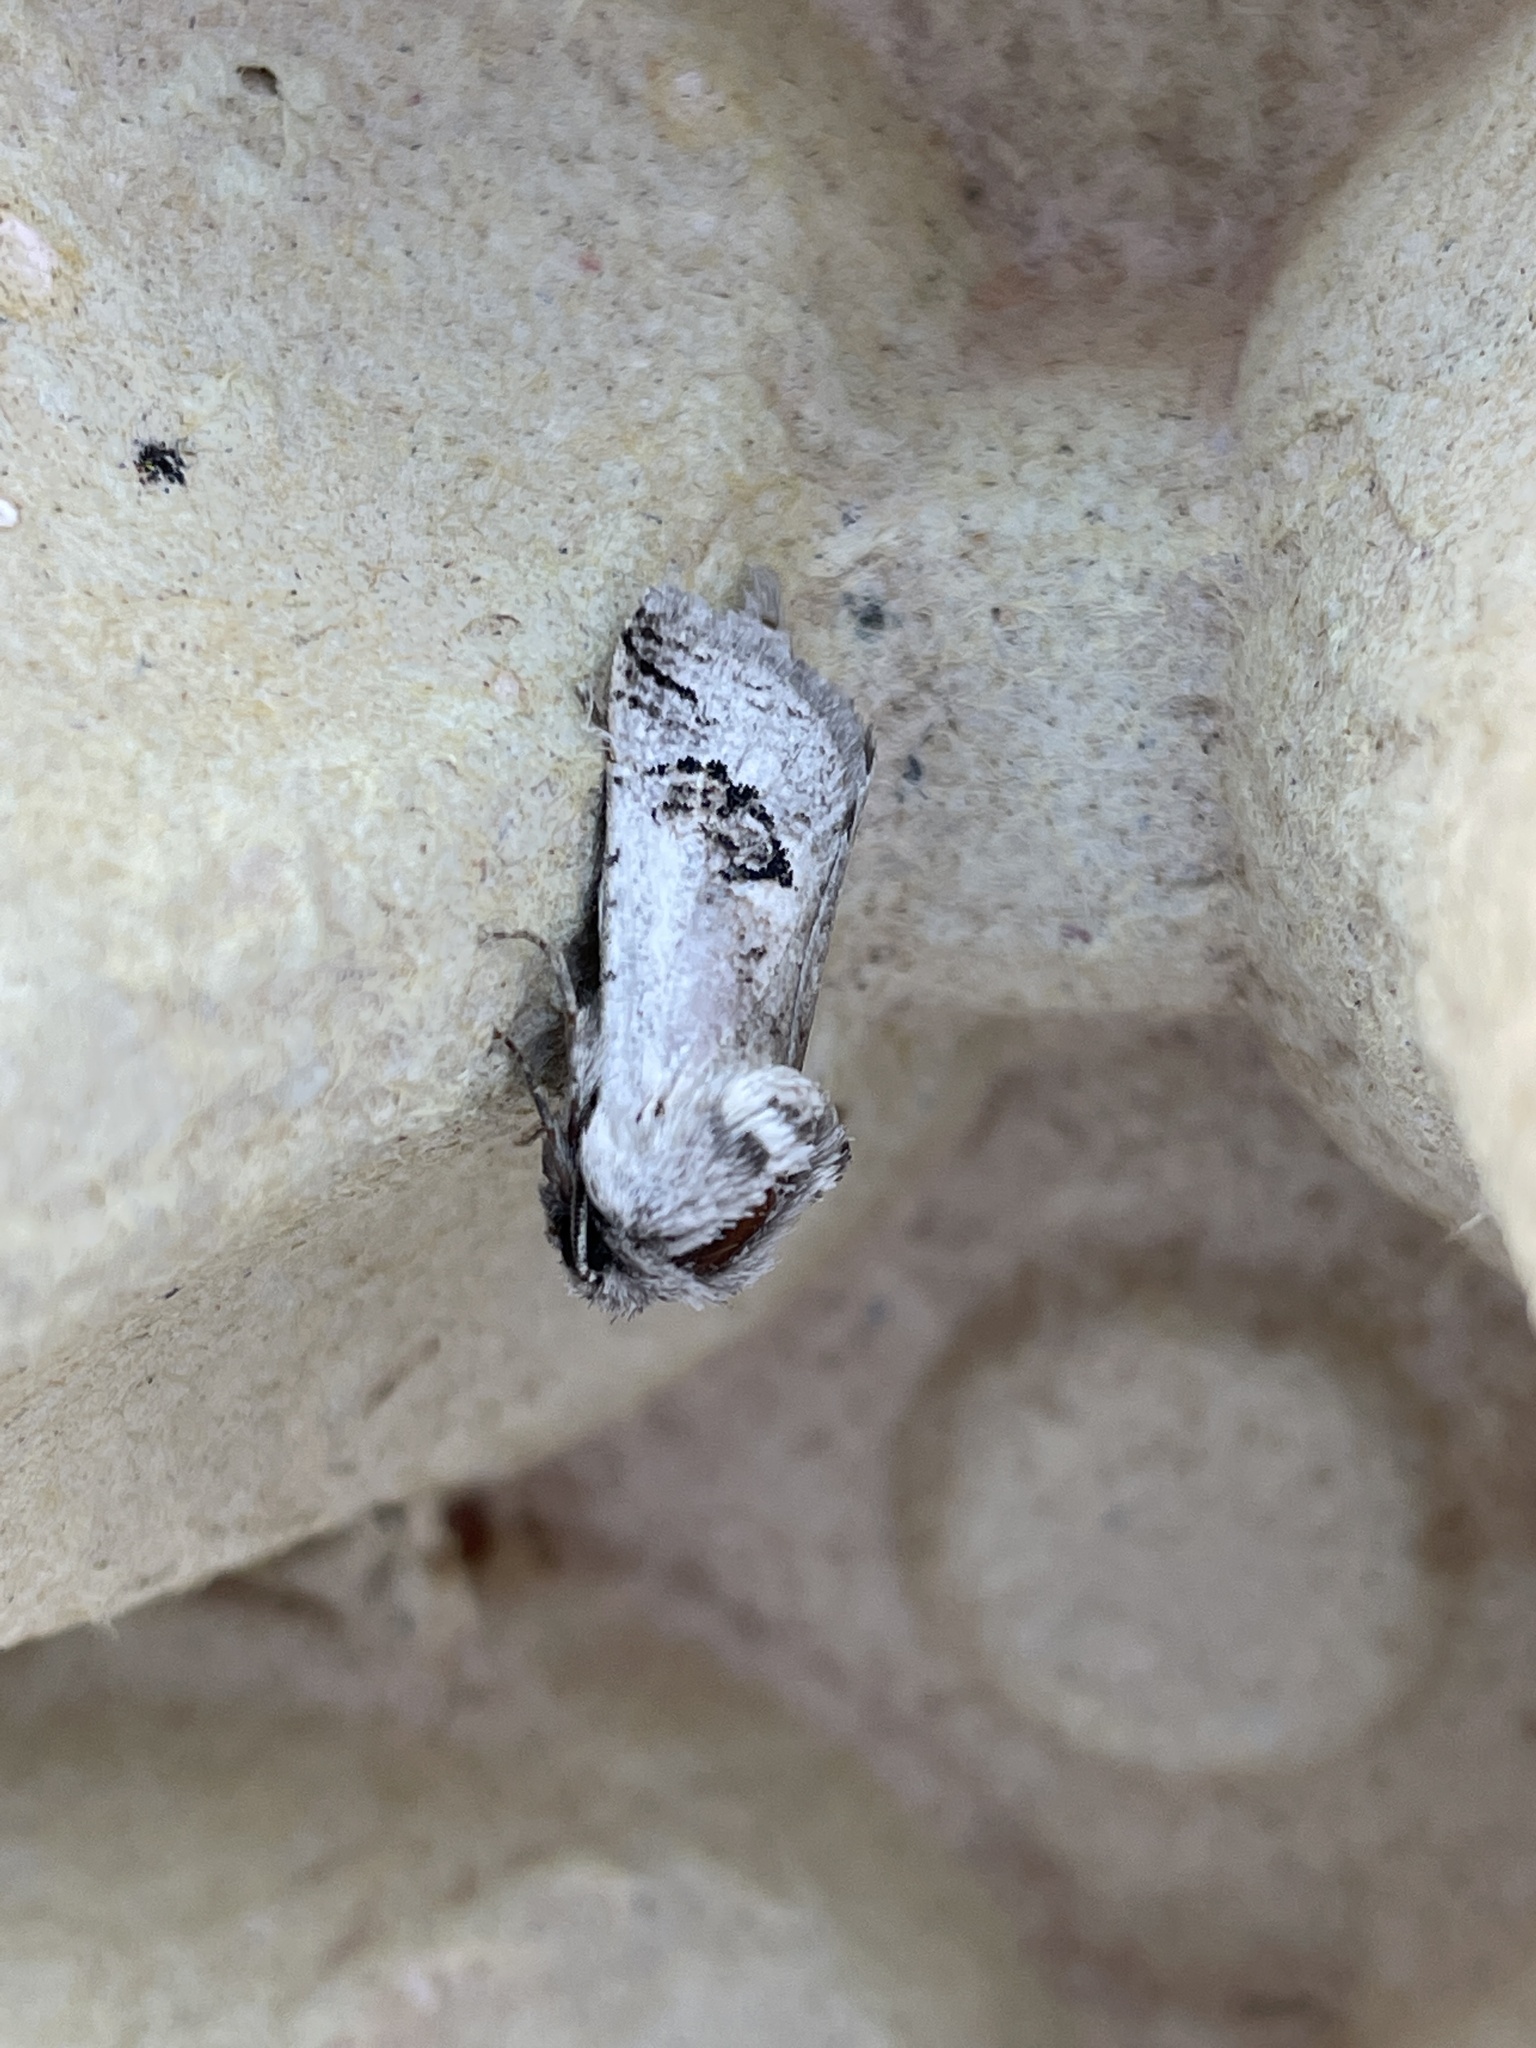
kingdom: Animalia
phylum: Arthropoda
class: Insecta
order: Lepidoptera
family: Cossidae
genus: Parahypopta
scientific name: Parahypopta caestrum
